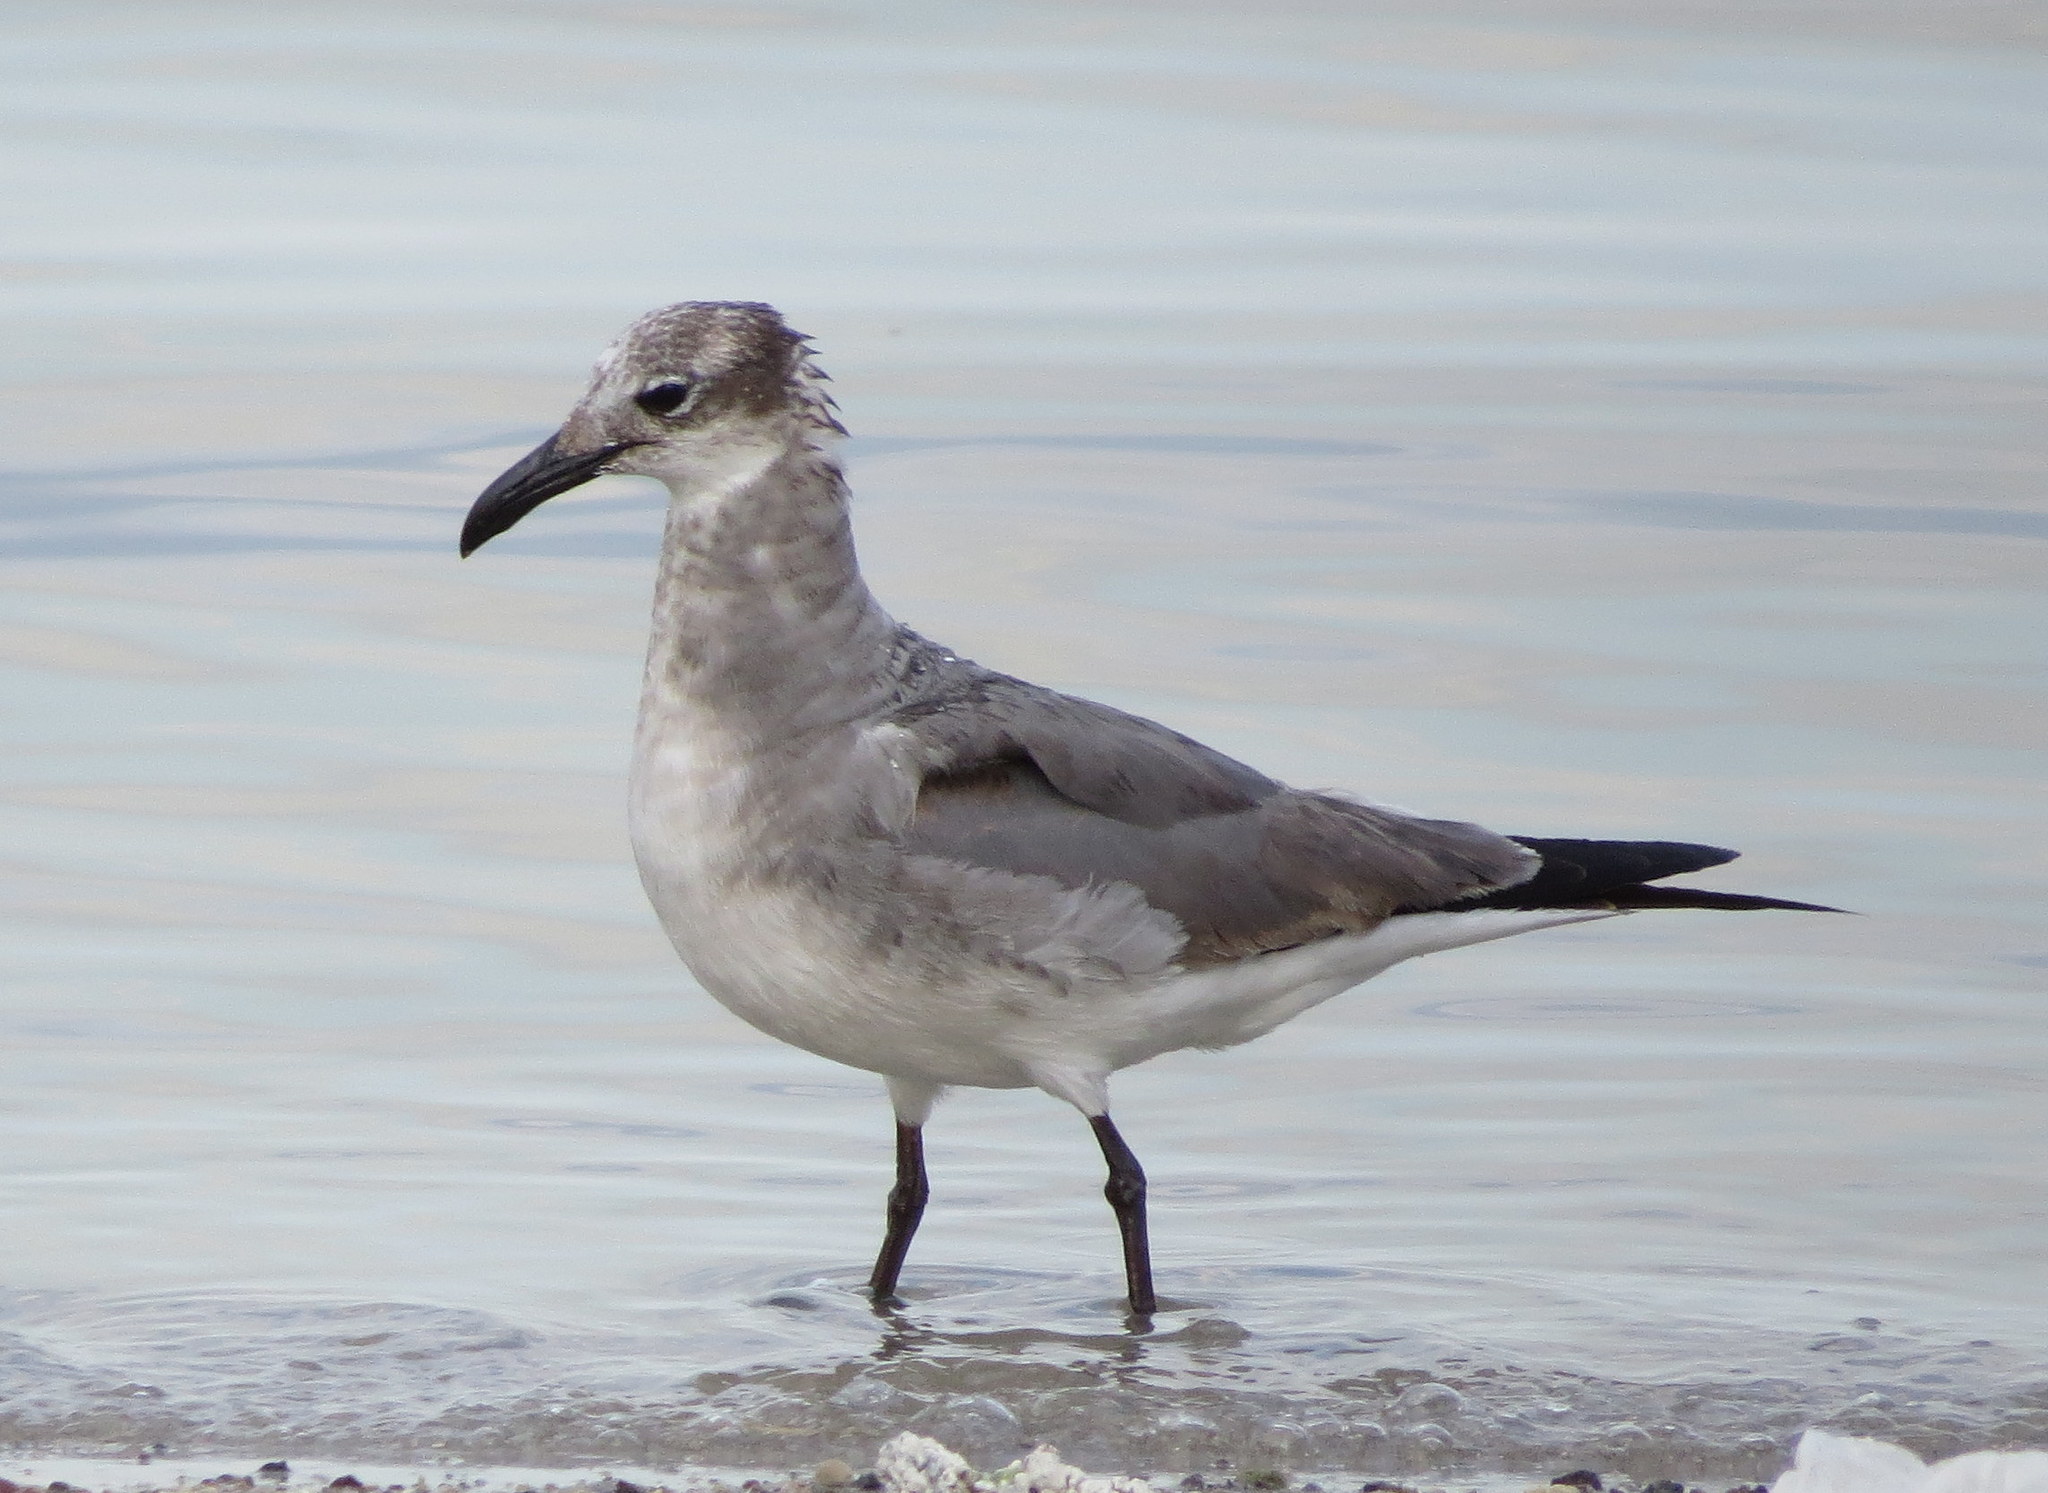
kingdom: Animalia
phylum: Chordata
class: Aves
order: Charadriiformes
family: Laridae
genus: Leucophaeus
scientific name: Leucophaeus atricilla
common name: Laughing gull
